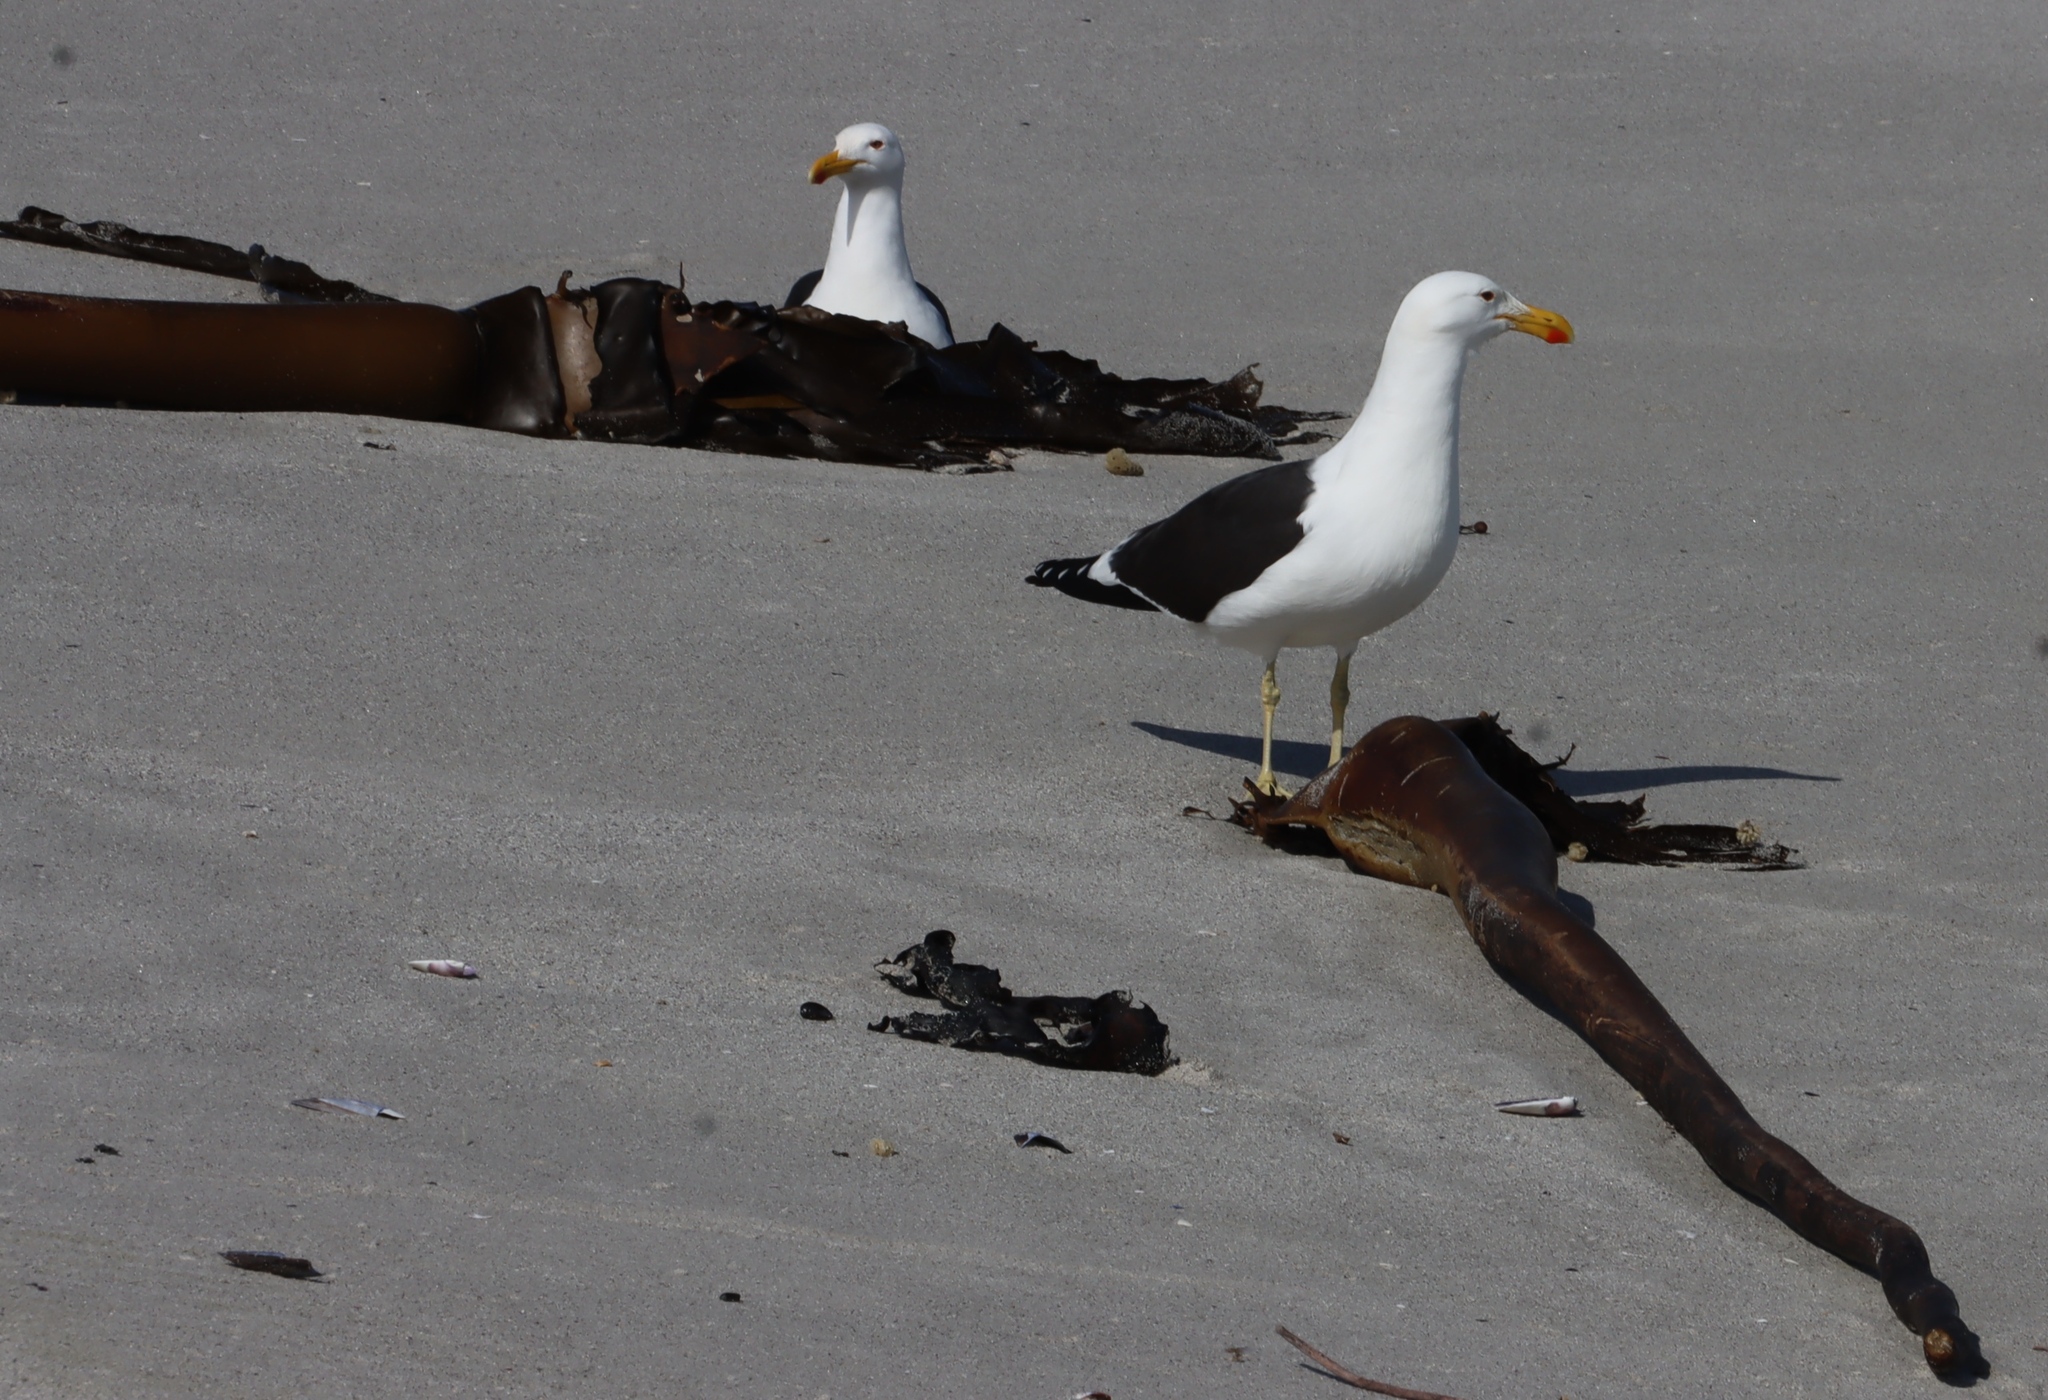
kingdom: Animalia
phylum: Chordata
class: Aves
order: Charadriiformes
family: Laridae
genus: Larus
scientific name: Larus dominicanus
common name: Kelp gull
